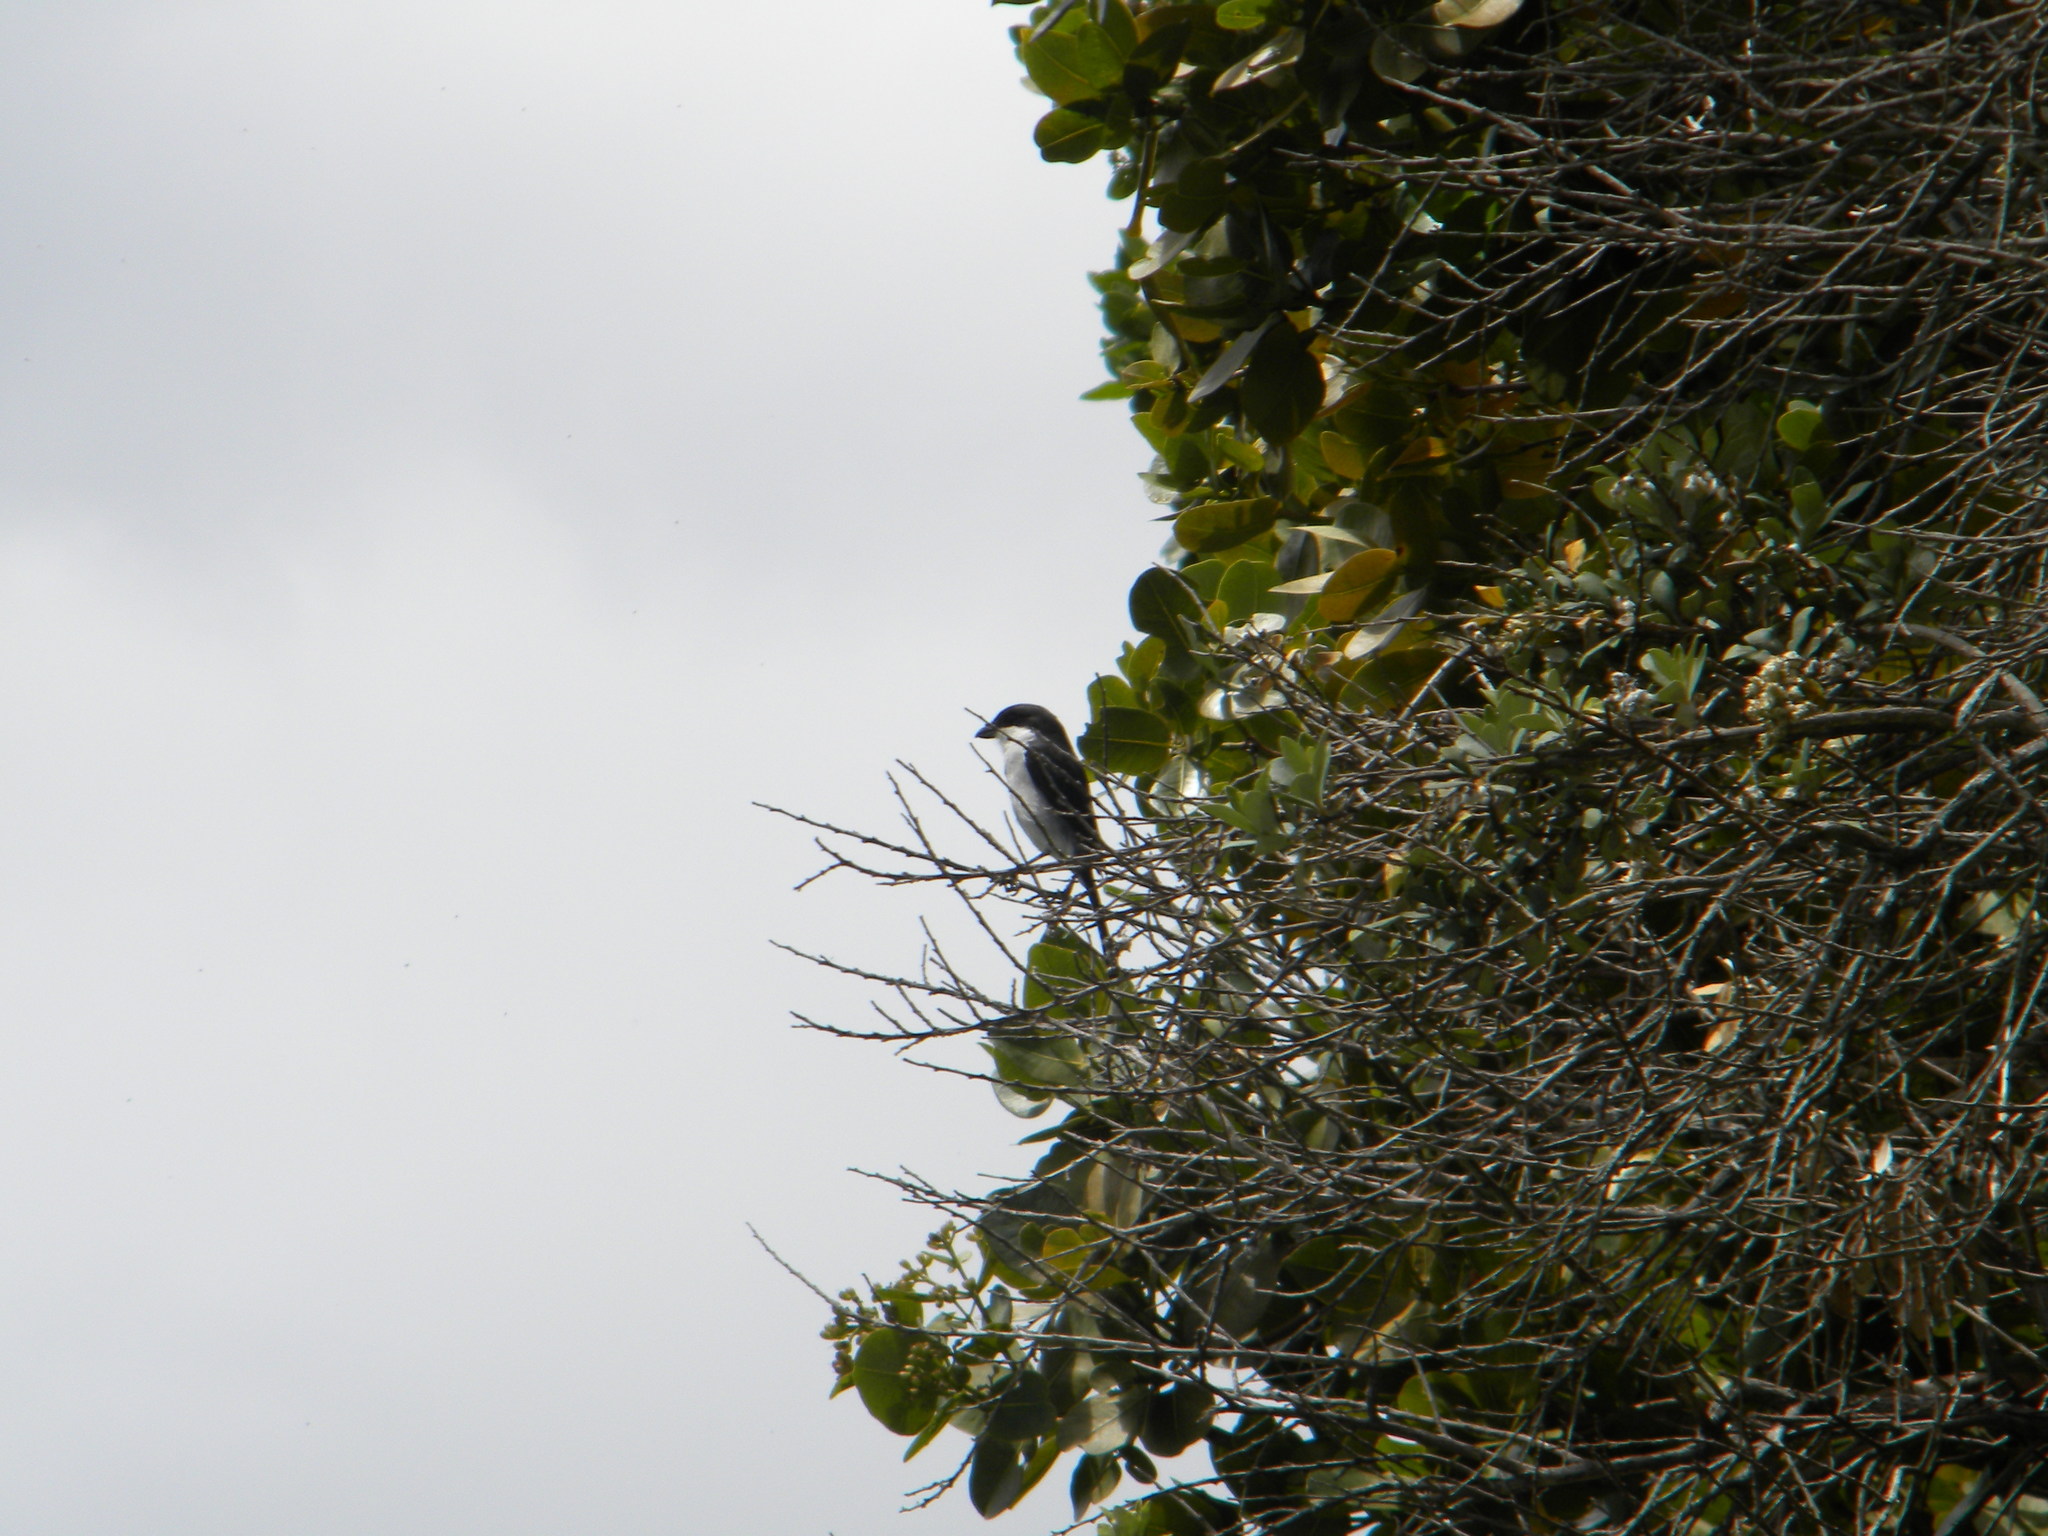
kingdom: Animalia
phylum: Chordata
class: Aves
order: Passeriformes
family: Laniidae
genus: Lanius
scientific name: Lanius collaris
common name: Southern fiscal
